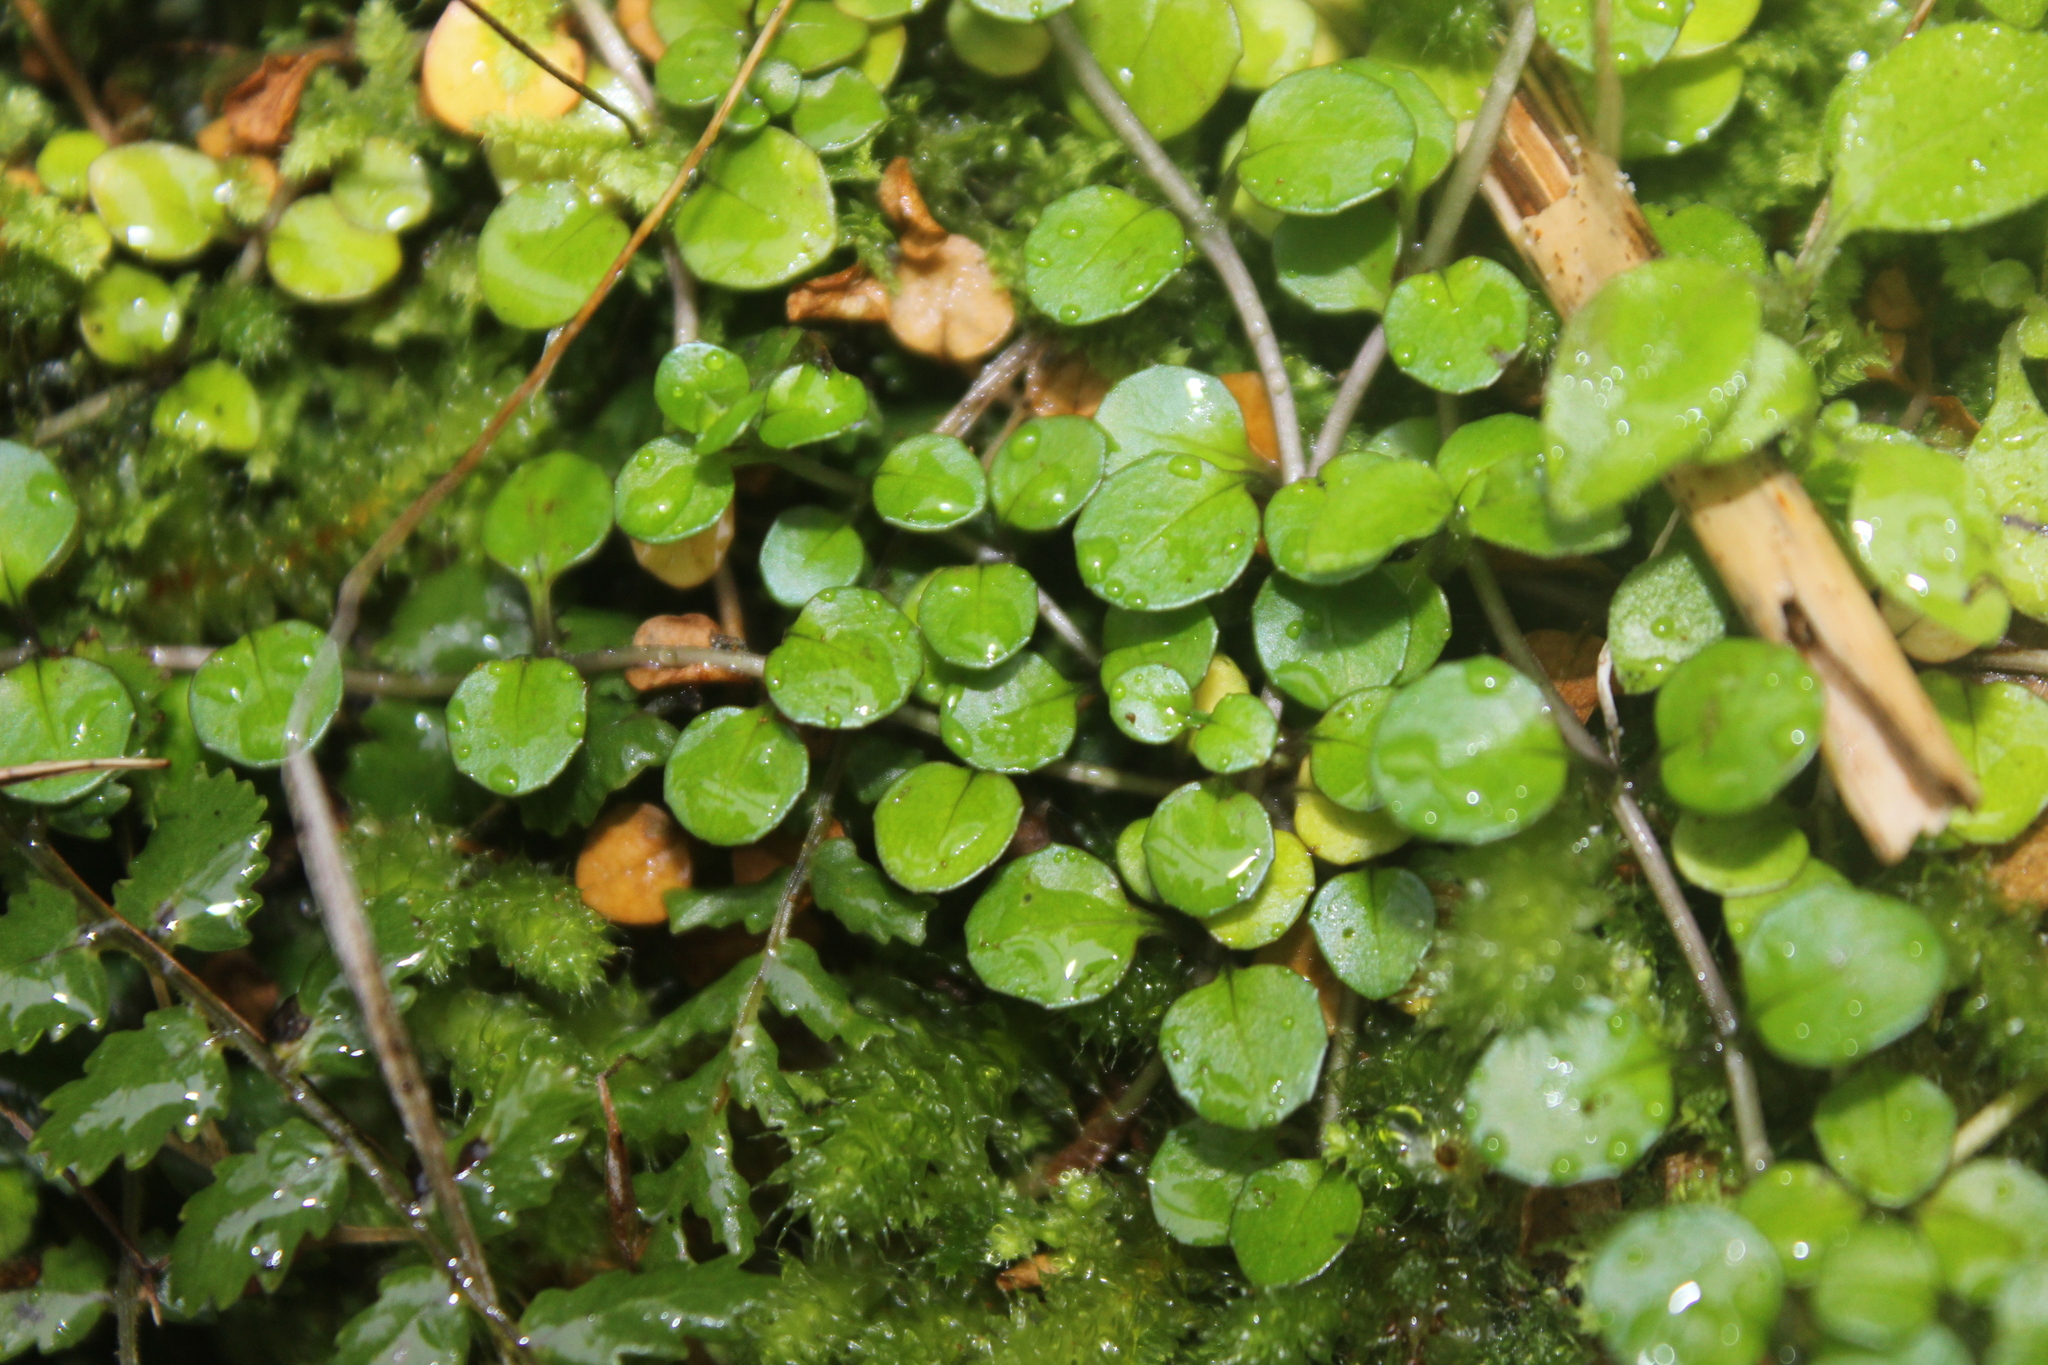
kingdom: Plantae
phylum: Tracheophyta
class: Magnoliopsida
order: Myrtales
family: Onagraceae
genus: Epilobium
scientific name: Epilobium nummularifolium
